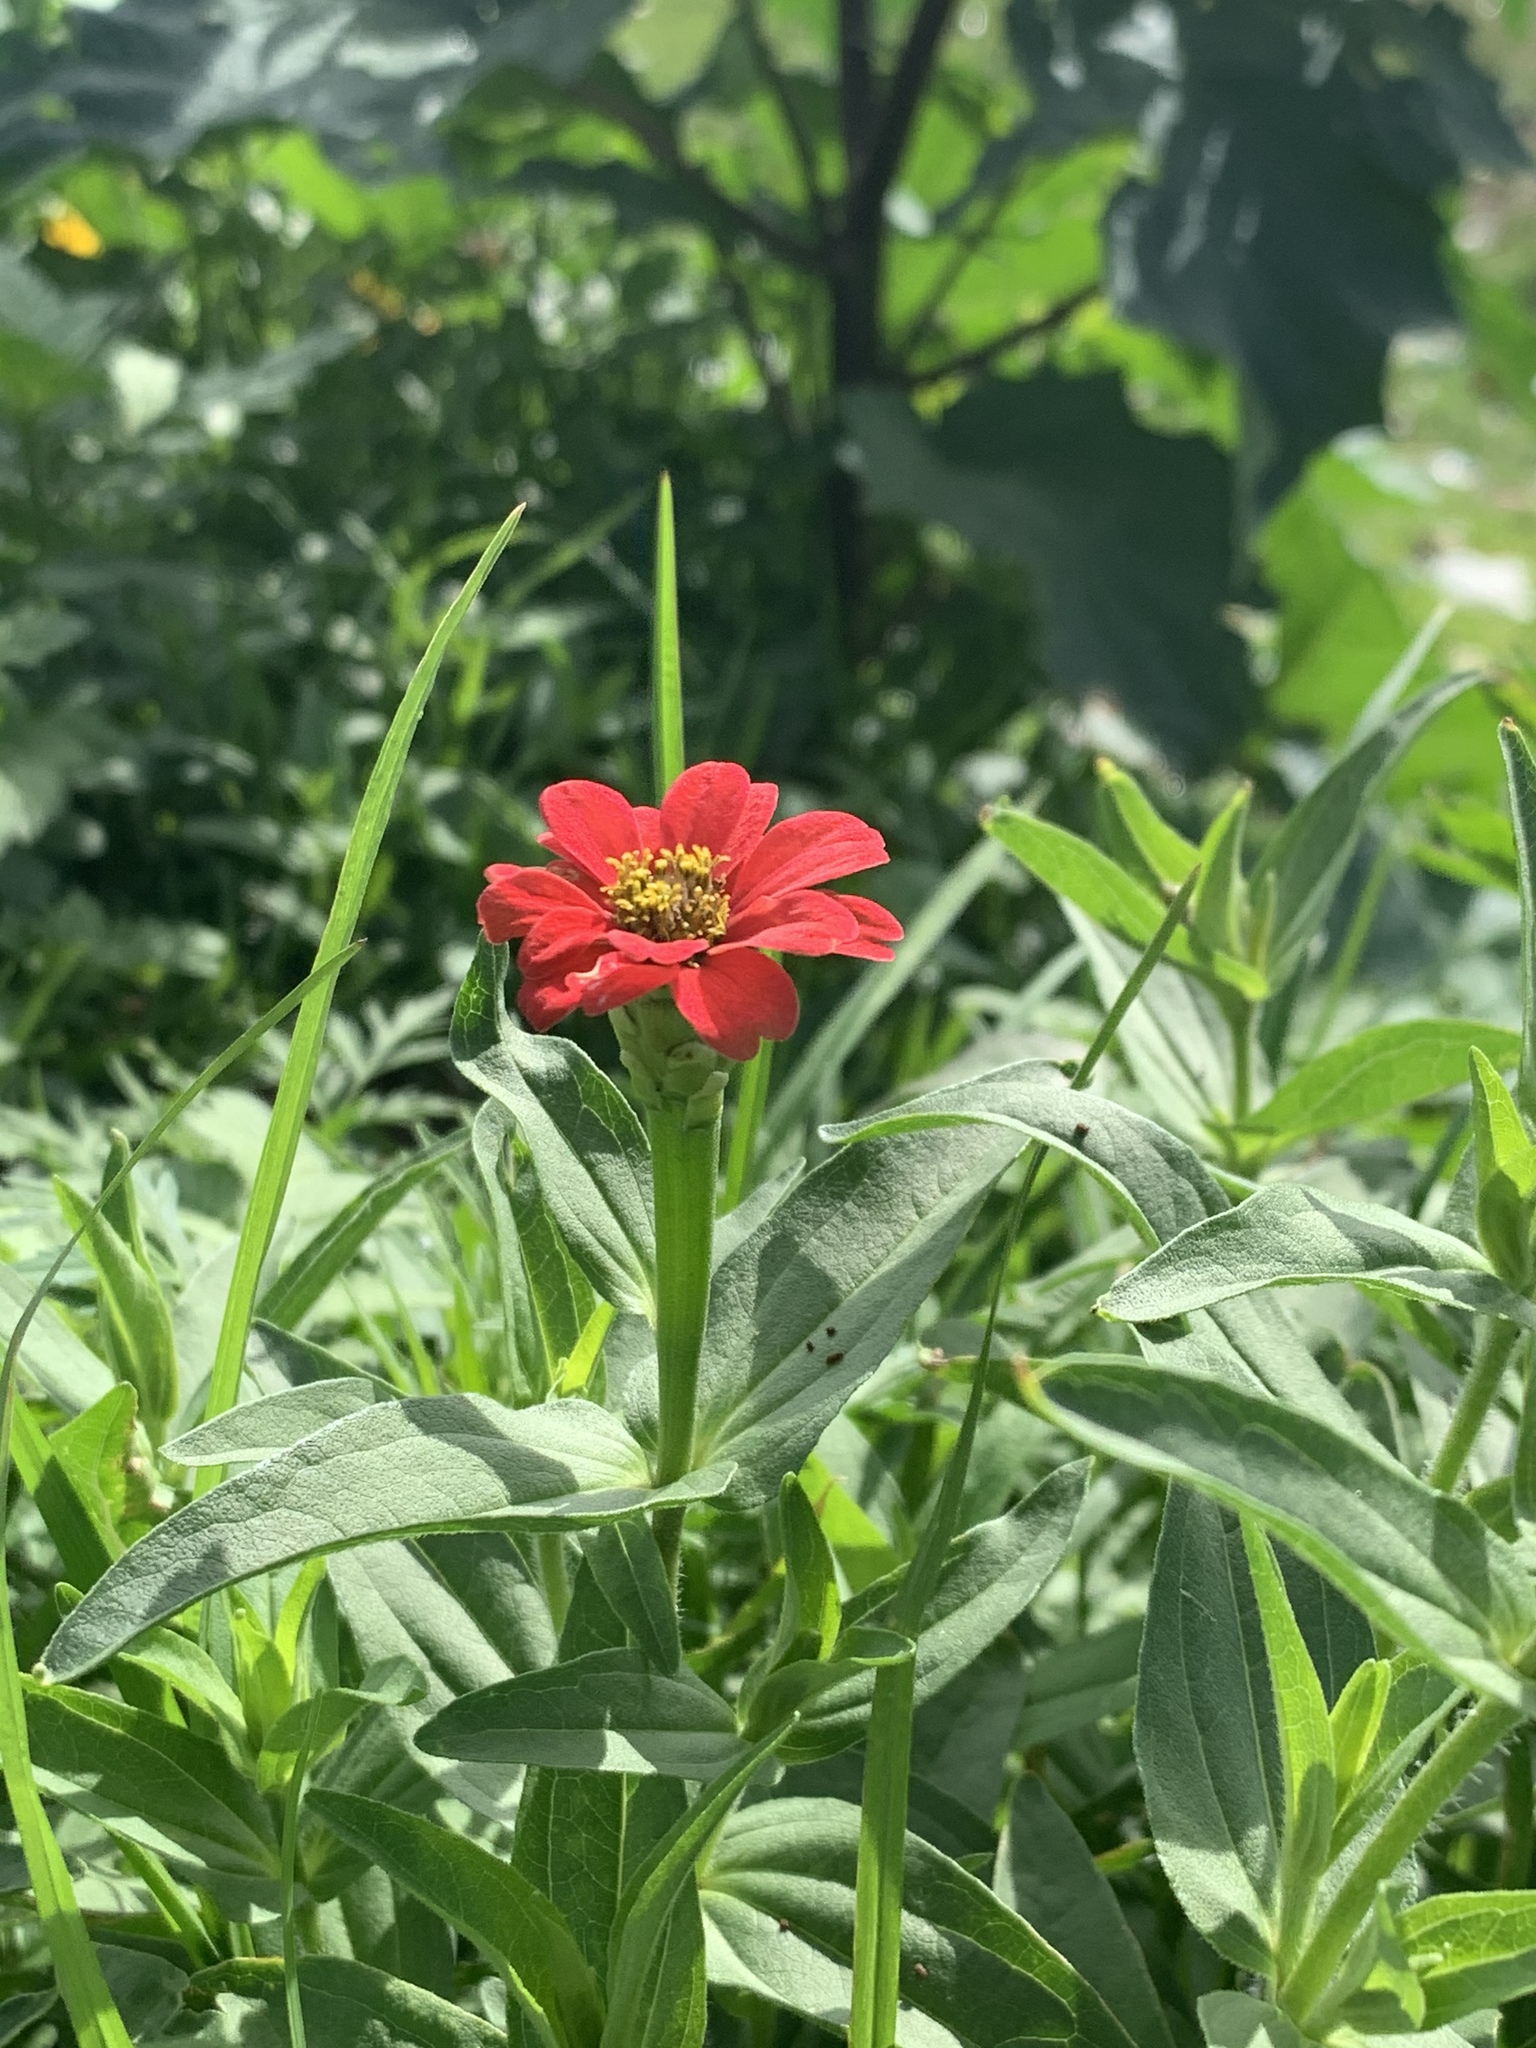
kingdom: Plantae
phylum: Tracheophyta
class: Magnoliopsida
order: Asterales
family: Asteraceae
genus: Zinnia
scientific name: Zinnia peruviana
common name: Peruvian zinnia
